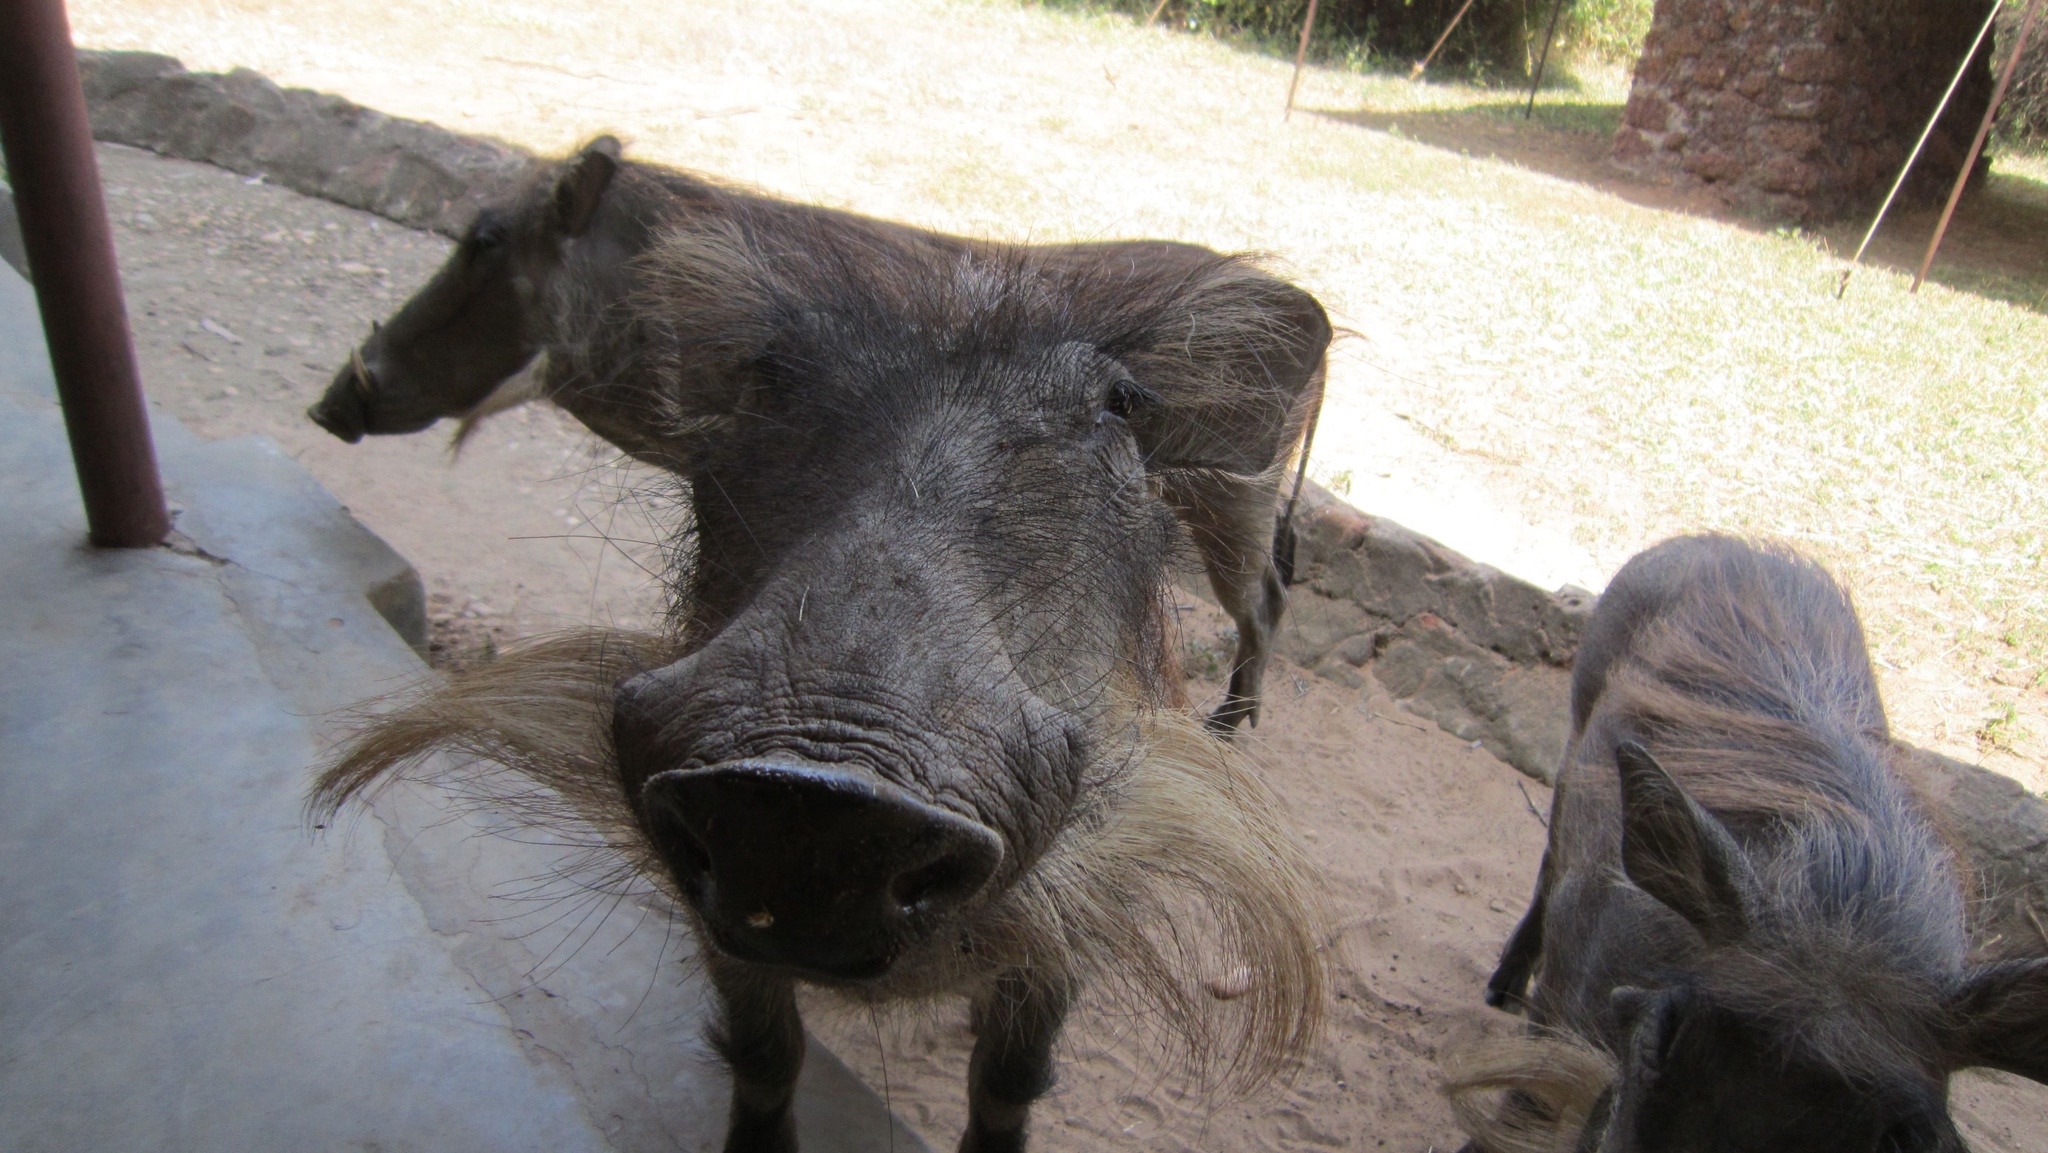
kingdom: Animalia
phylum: Chordata
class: Mammalia
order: Artiodactyla
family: Suidae
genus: Phacochoerus
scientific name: Phacochoerus africanus
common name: Common warthog
